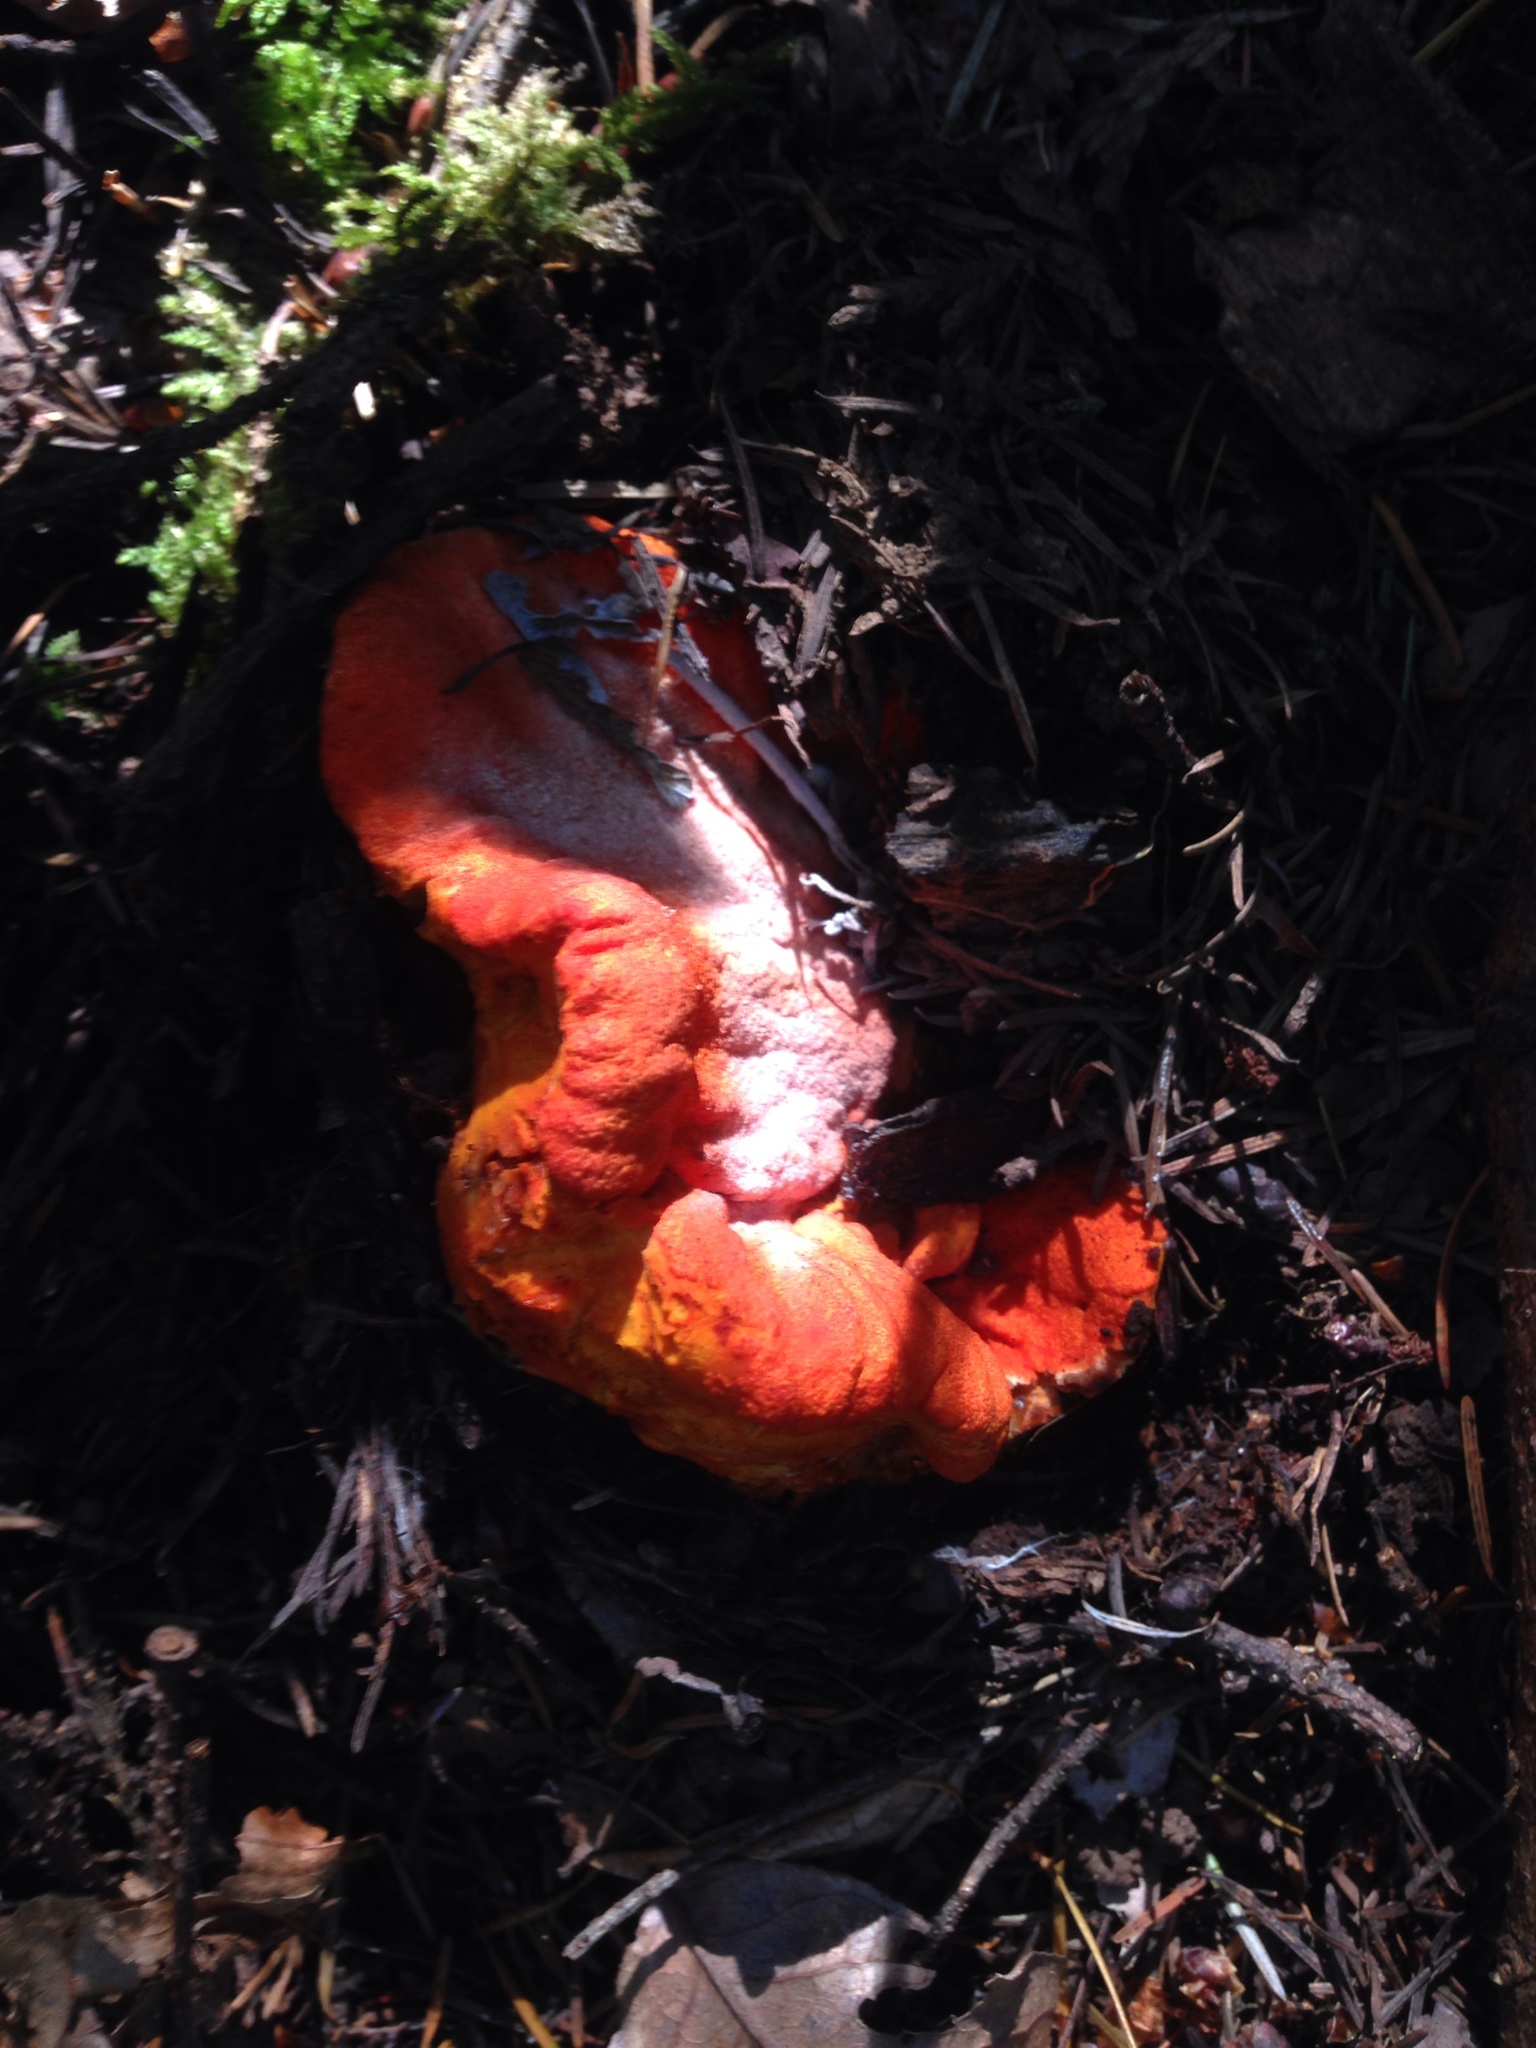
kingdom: Fungi
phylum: Ascomycota
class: Sordariomycetes
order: Hypocreales
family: Hypocreaceae
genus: Hypomyces
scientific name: Hypomyces lactifluorum
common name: Lobster mushroom
